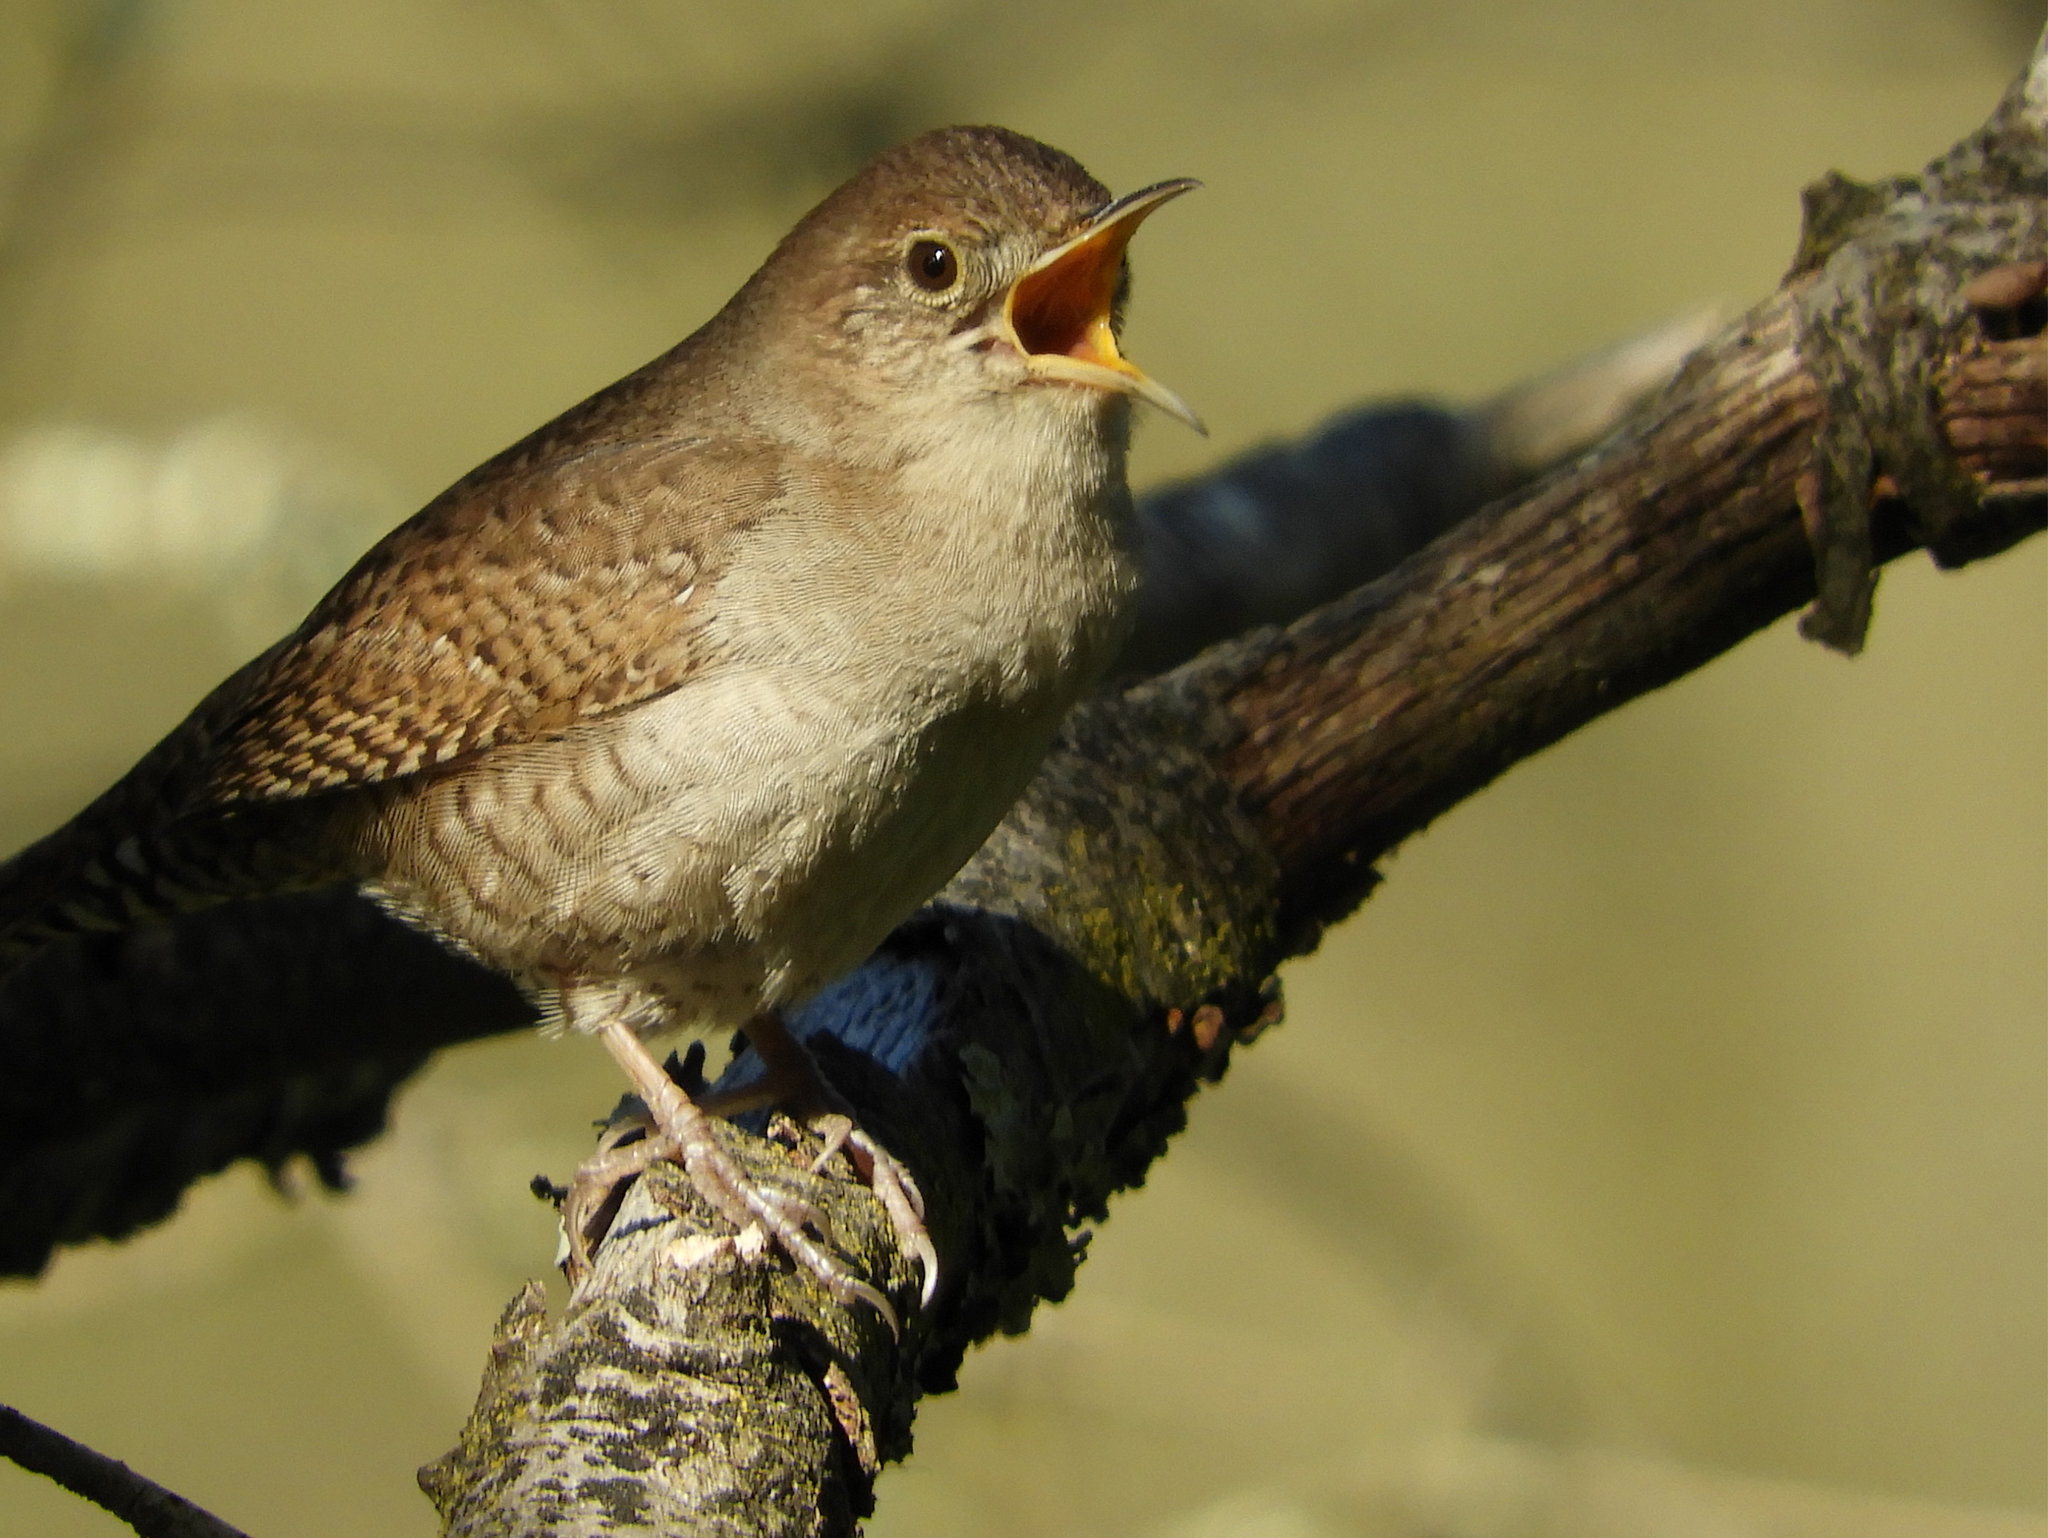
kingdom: Animalia
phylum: Chordata
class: Aves
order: Passeriformes
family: Troglodytidae
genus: Troglodytes
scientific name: Troglodytes aedon
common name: House wren
